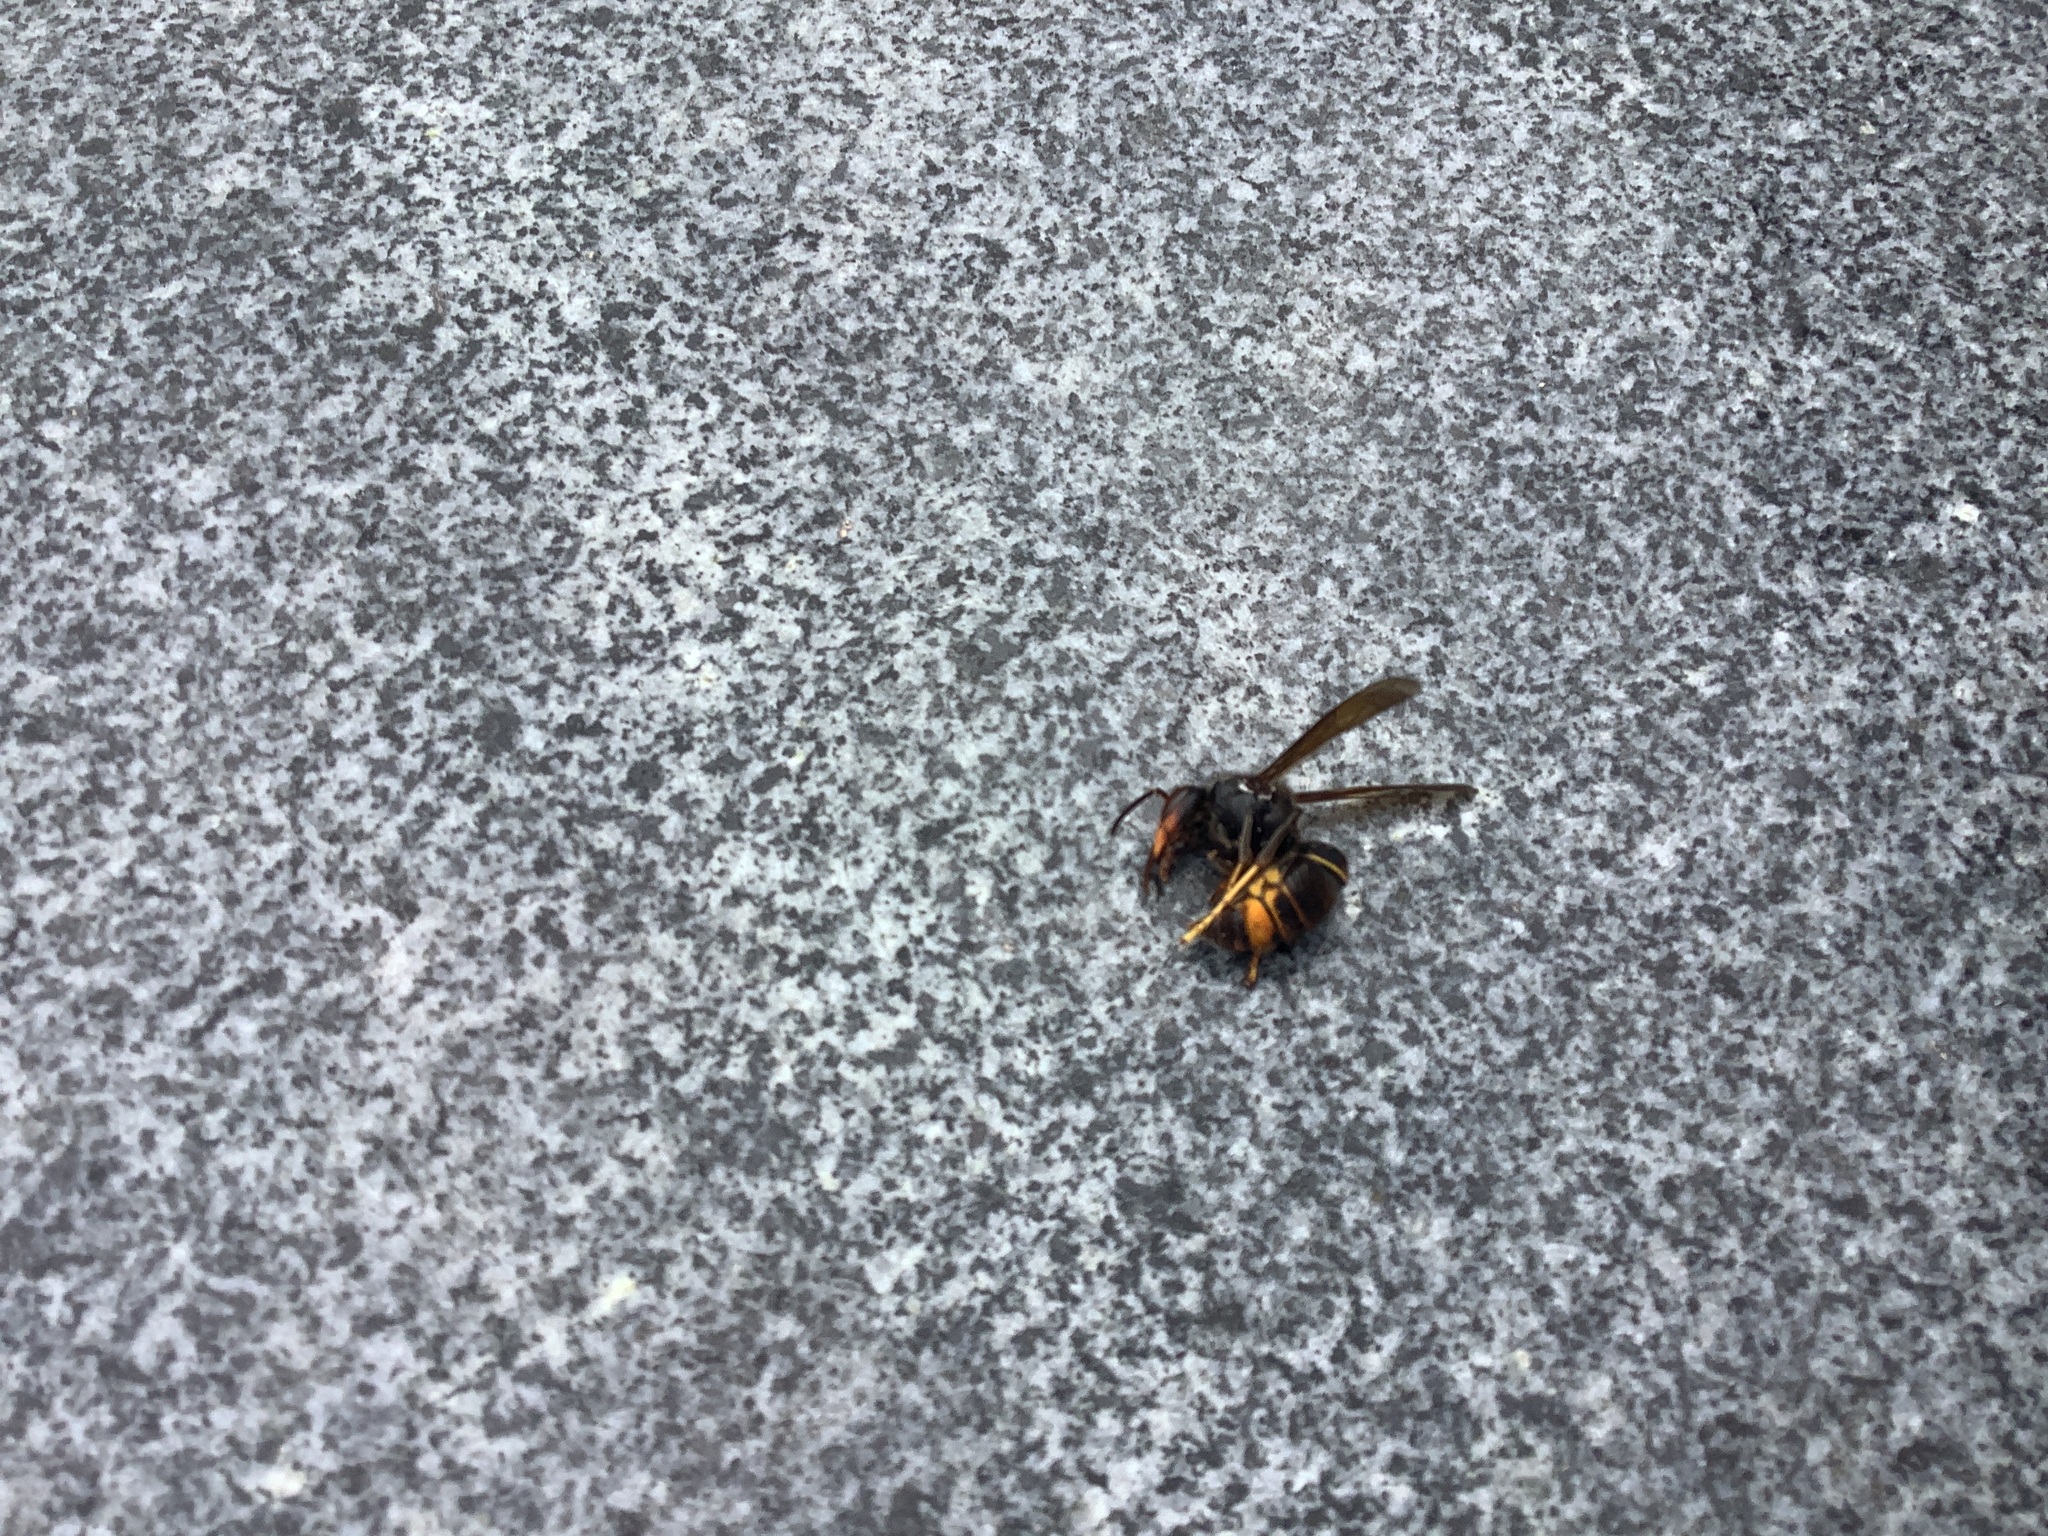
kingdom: Animalia
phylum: Arthropoda
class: Insecta
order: Hymenoptera
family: Vespidae
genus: Vespa
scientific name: Vespa velutina
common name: Asian hornet
